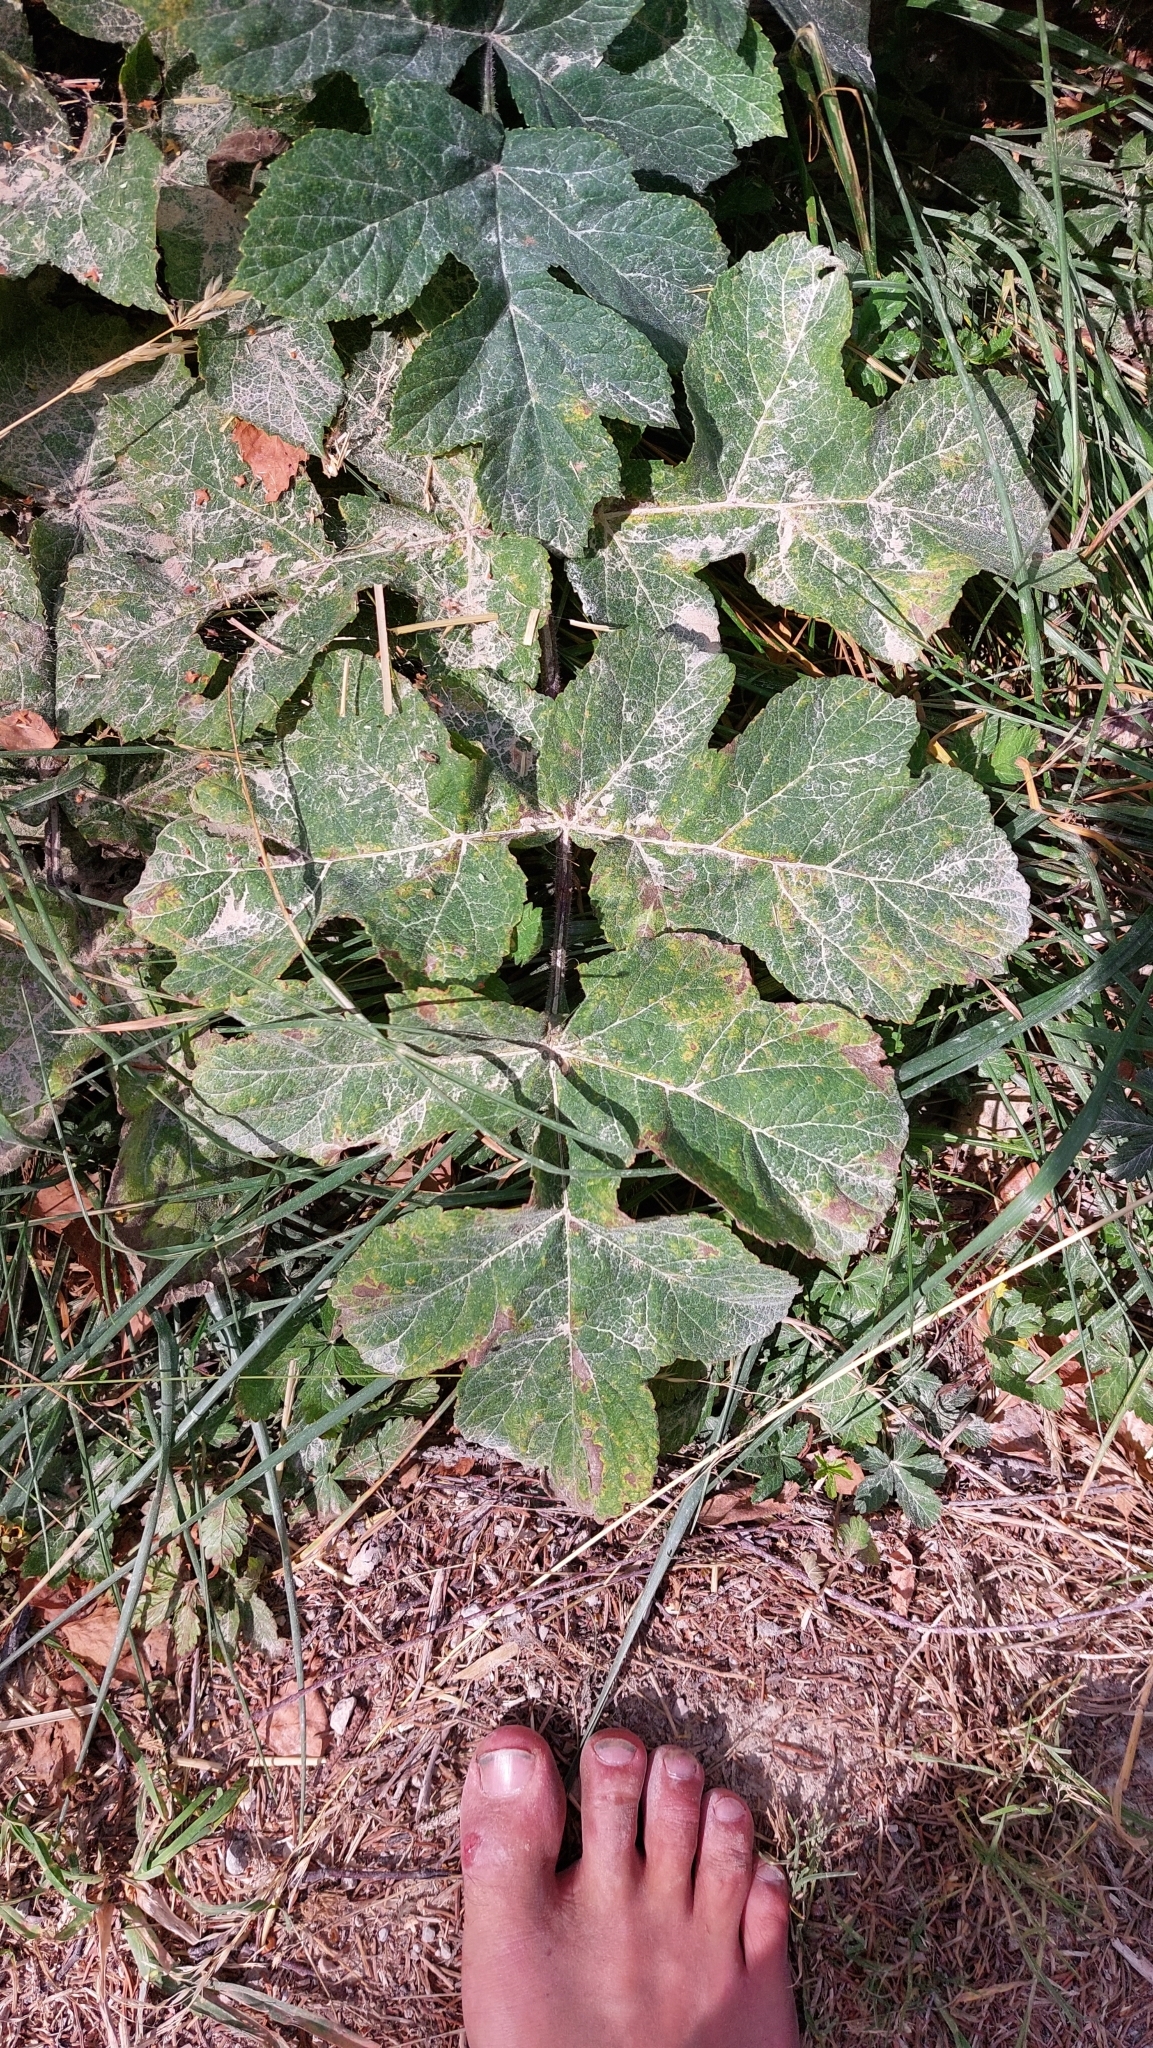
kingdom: Plantae
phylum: Tracheophyta
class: Magnoliopsida
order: Apiales
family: Apiaceae
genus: Heracleum
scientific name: Heracleum sphondylium
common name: Hogweed
